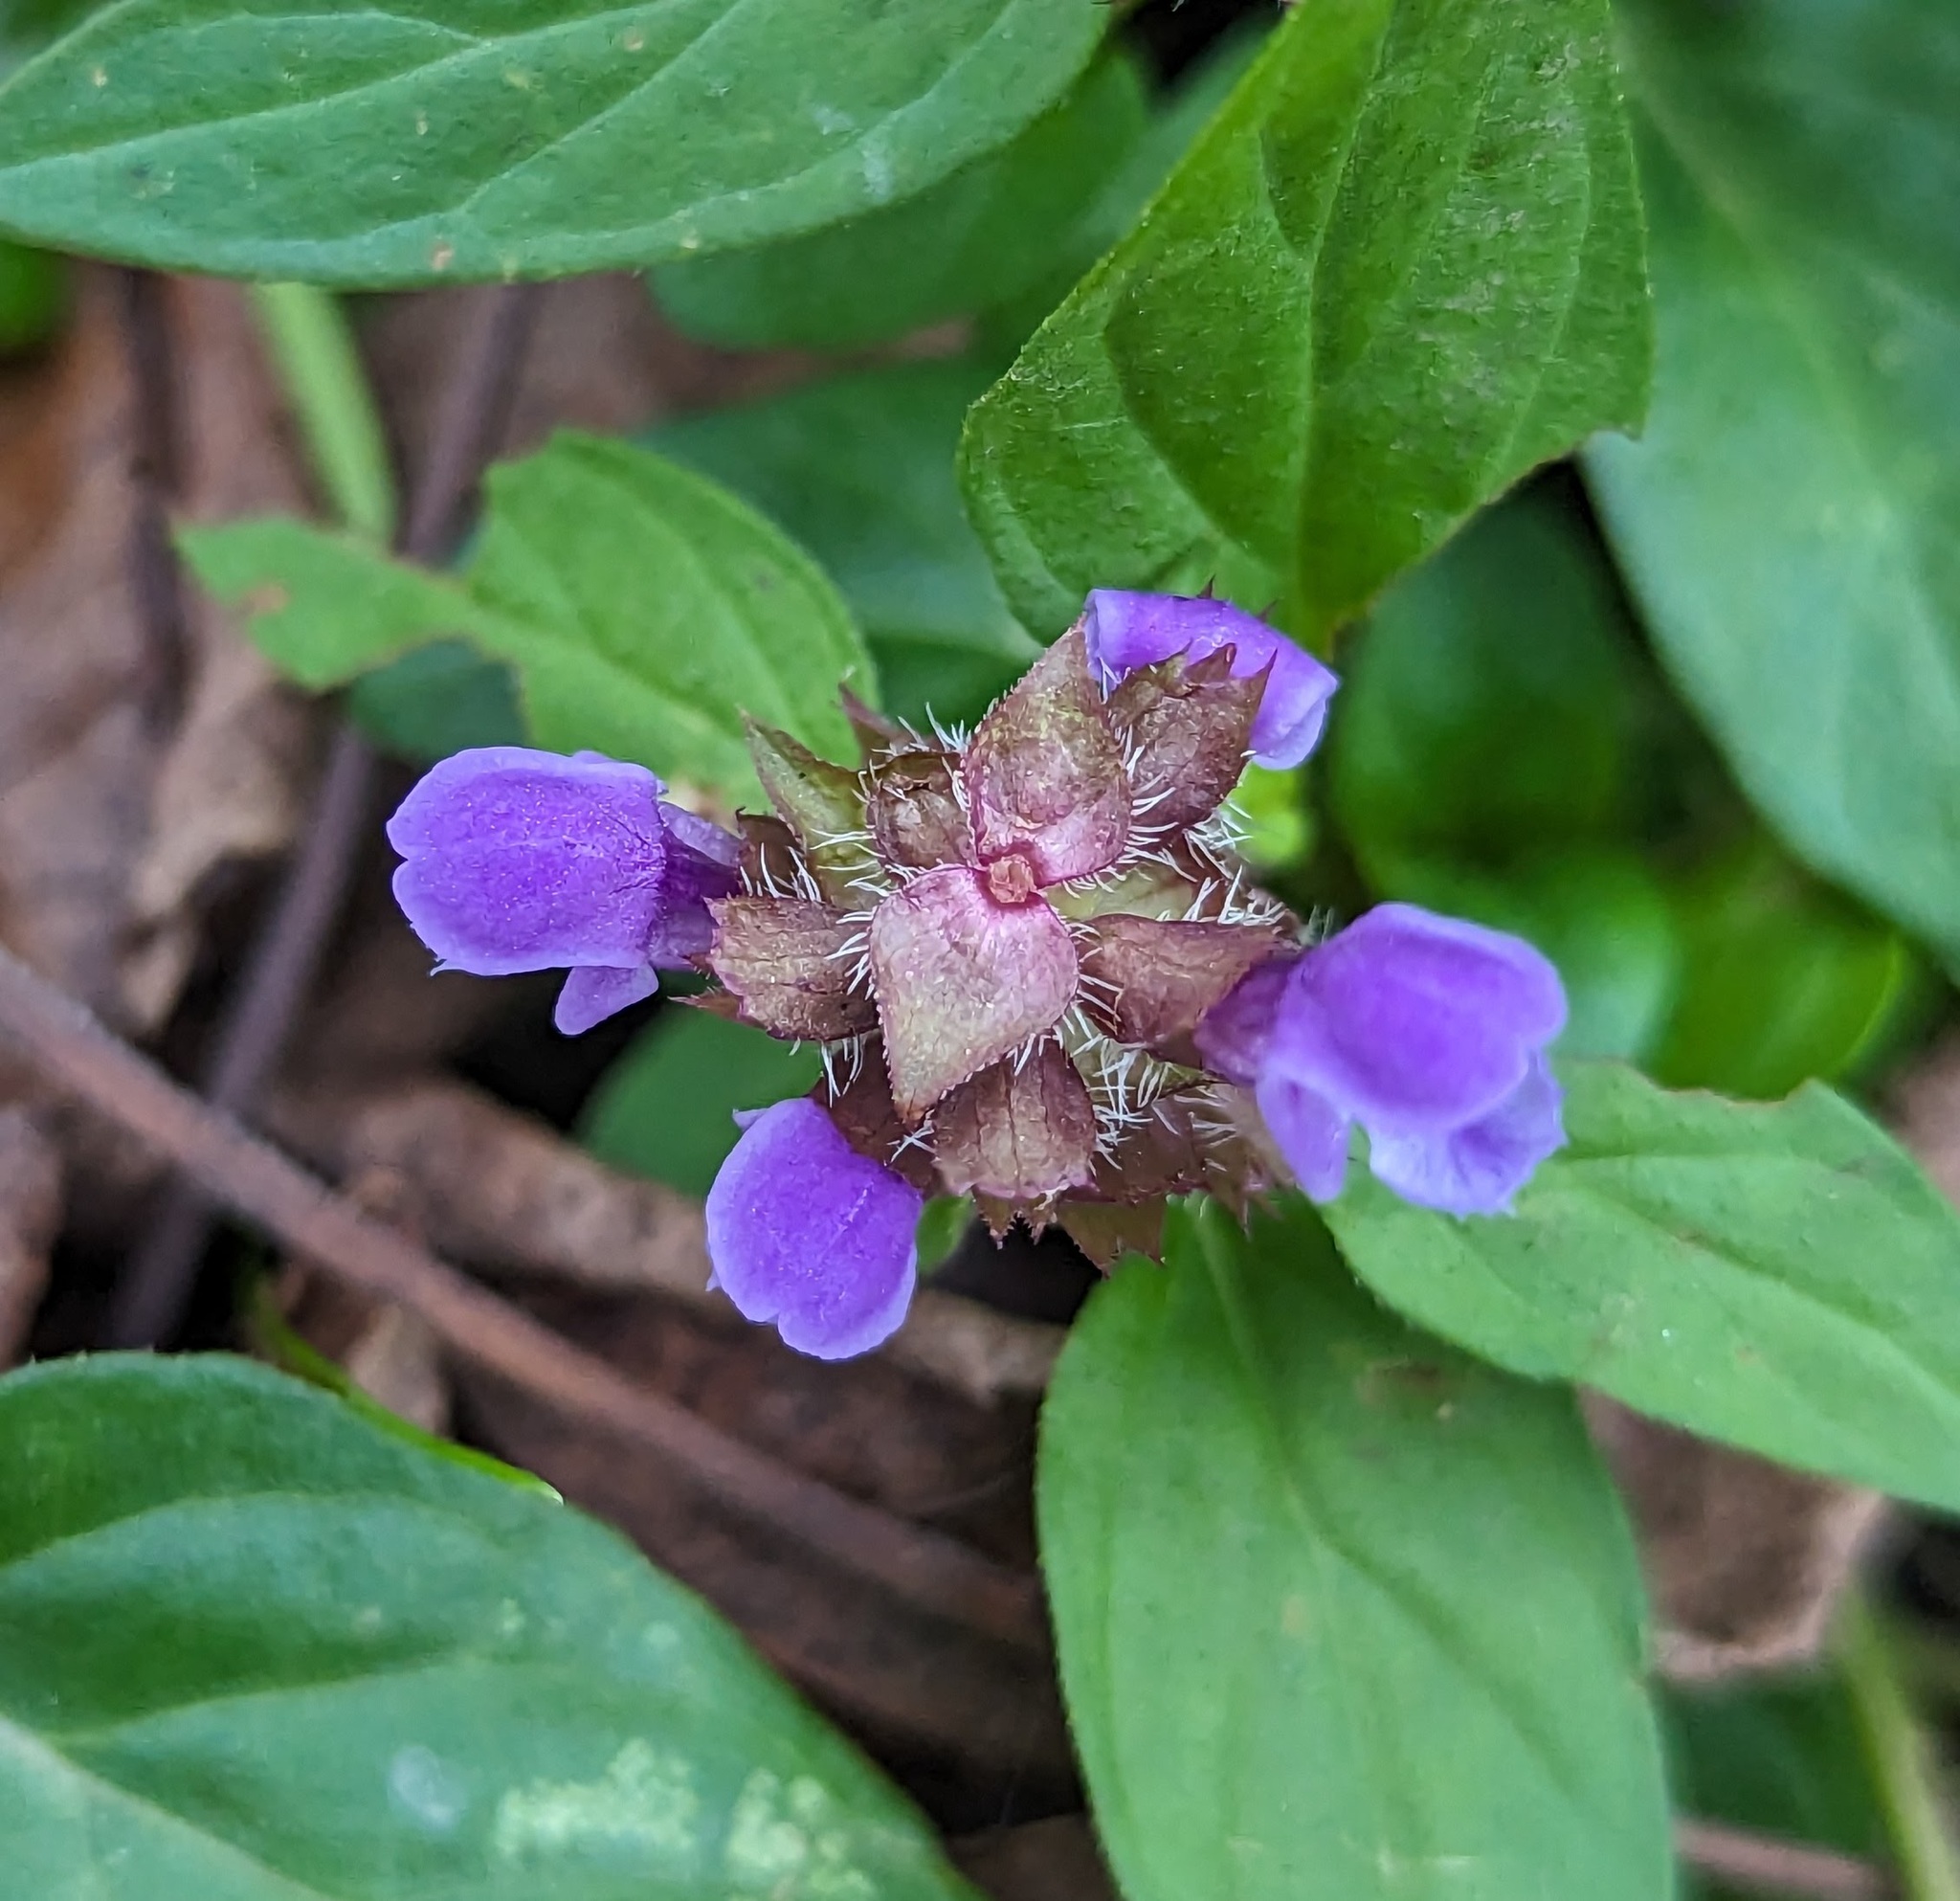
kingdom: Plantae
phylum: Tracheophyta
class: Magnoliopsida
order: Lamiales
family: Lamiaceae
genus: Prunella
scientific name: Prunella vulgaris
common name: Heal-all
